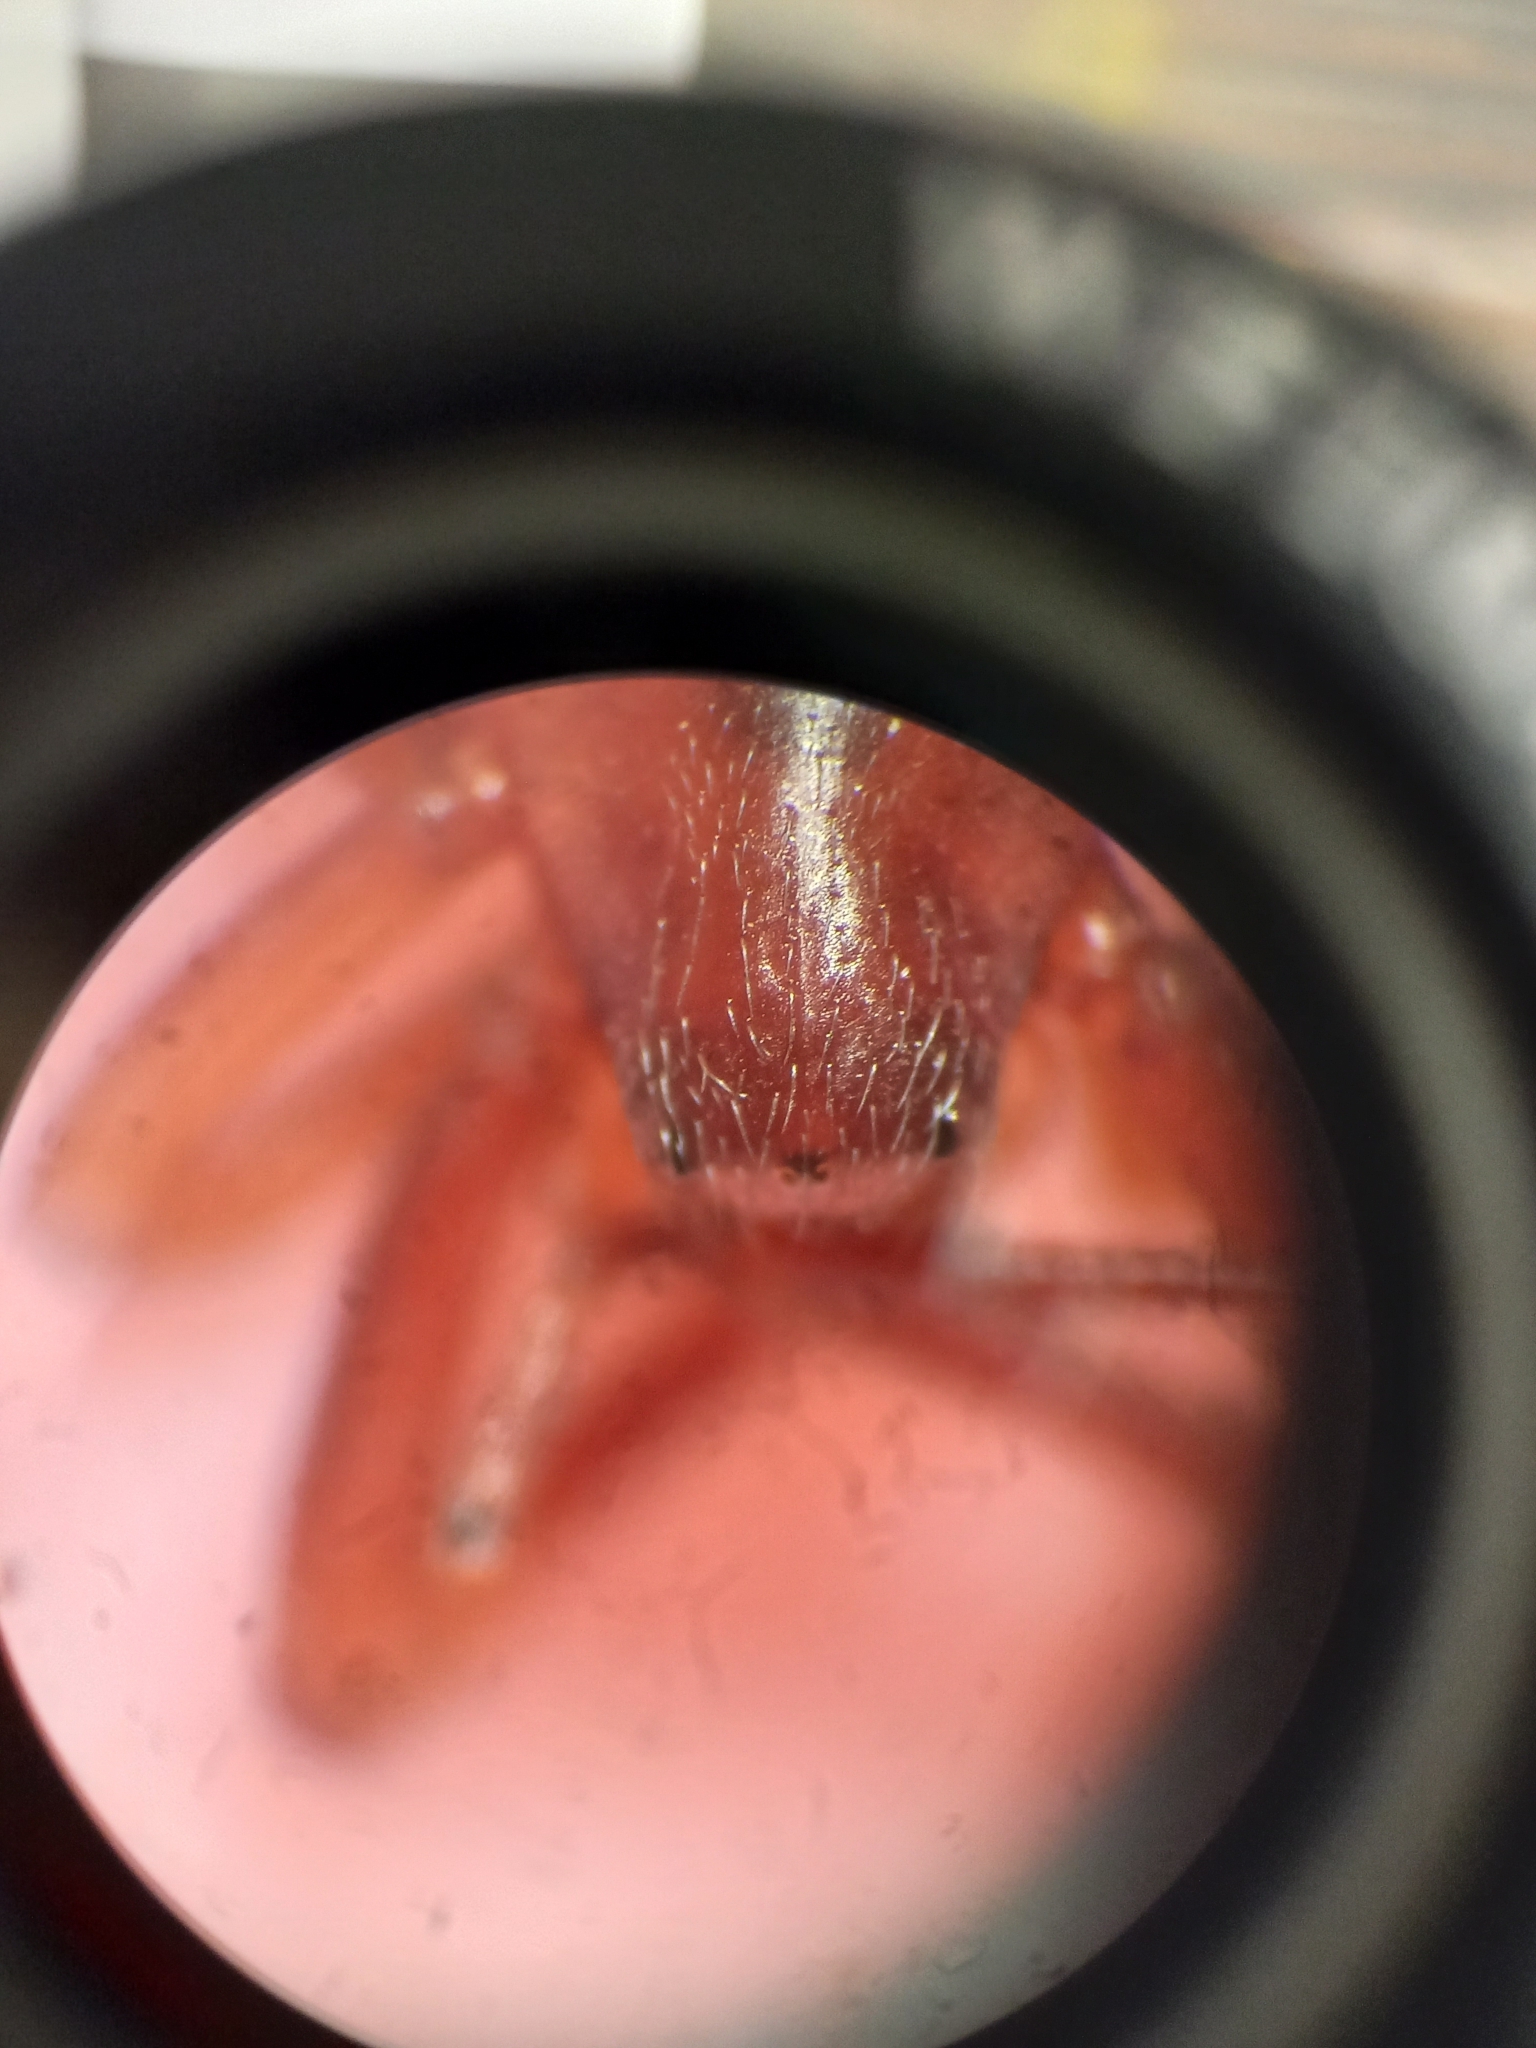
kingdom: Animalia
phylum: Arthropoda
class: Arachnida
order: Araneae
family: Periegopidae
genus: Periegops
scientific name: Periegops suterii
